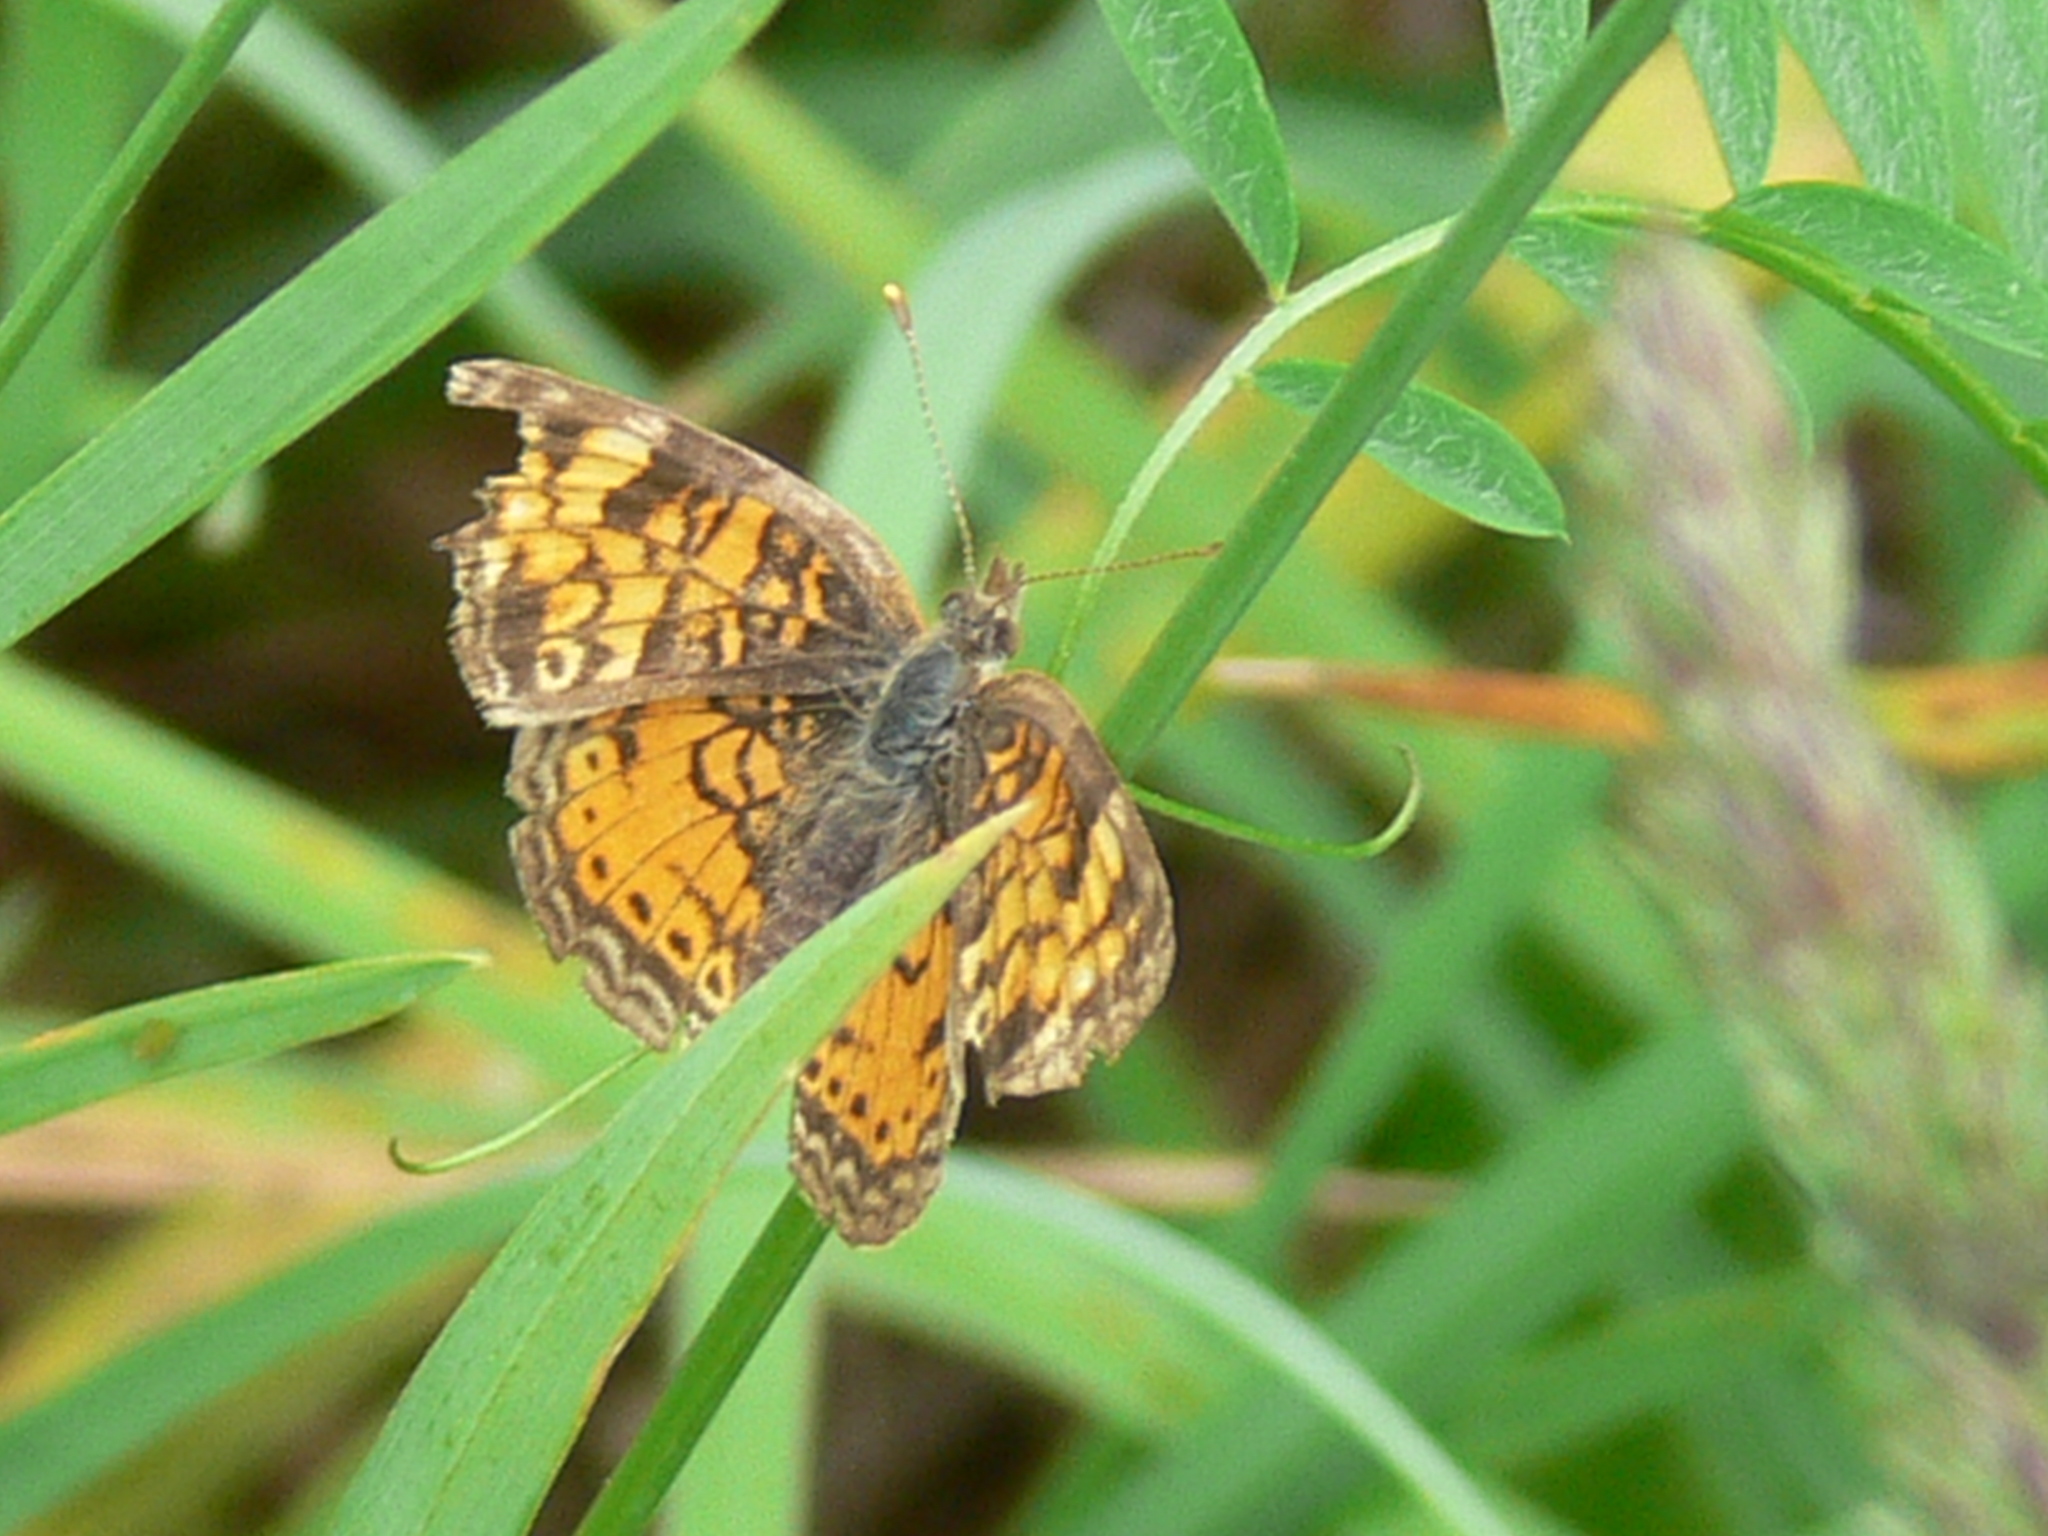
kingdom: Animalia
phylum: Arthropoda
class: Insecta
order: Lepidoptera
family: Nymphalidae
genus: Phyciodes
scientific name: Phyciodes tharos
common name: Pearl crescent
